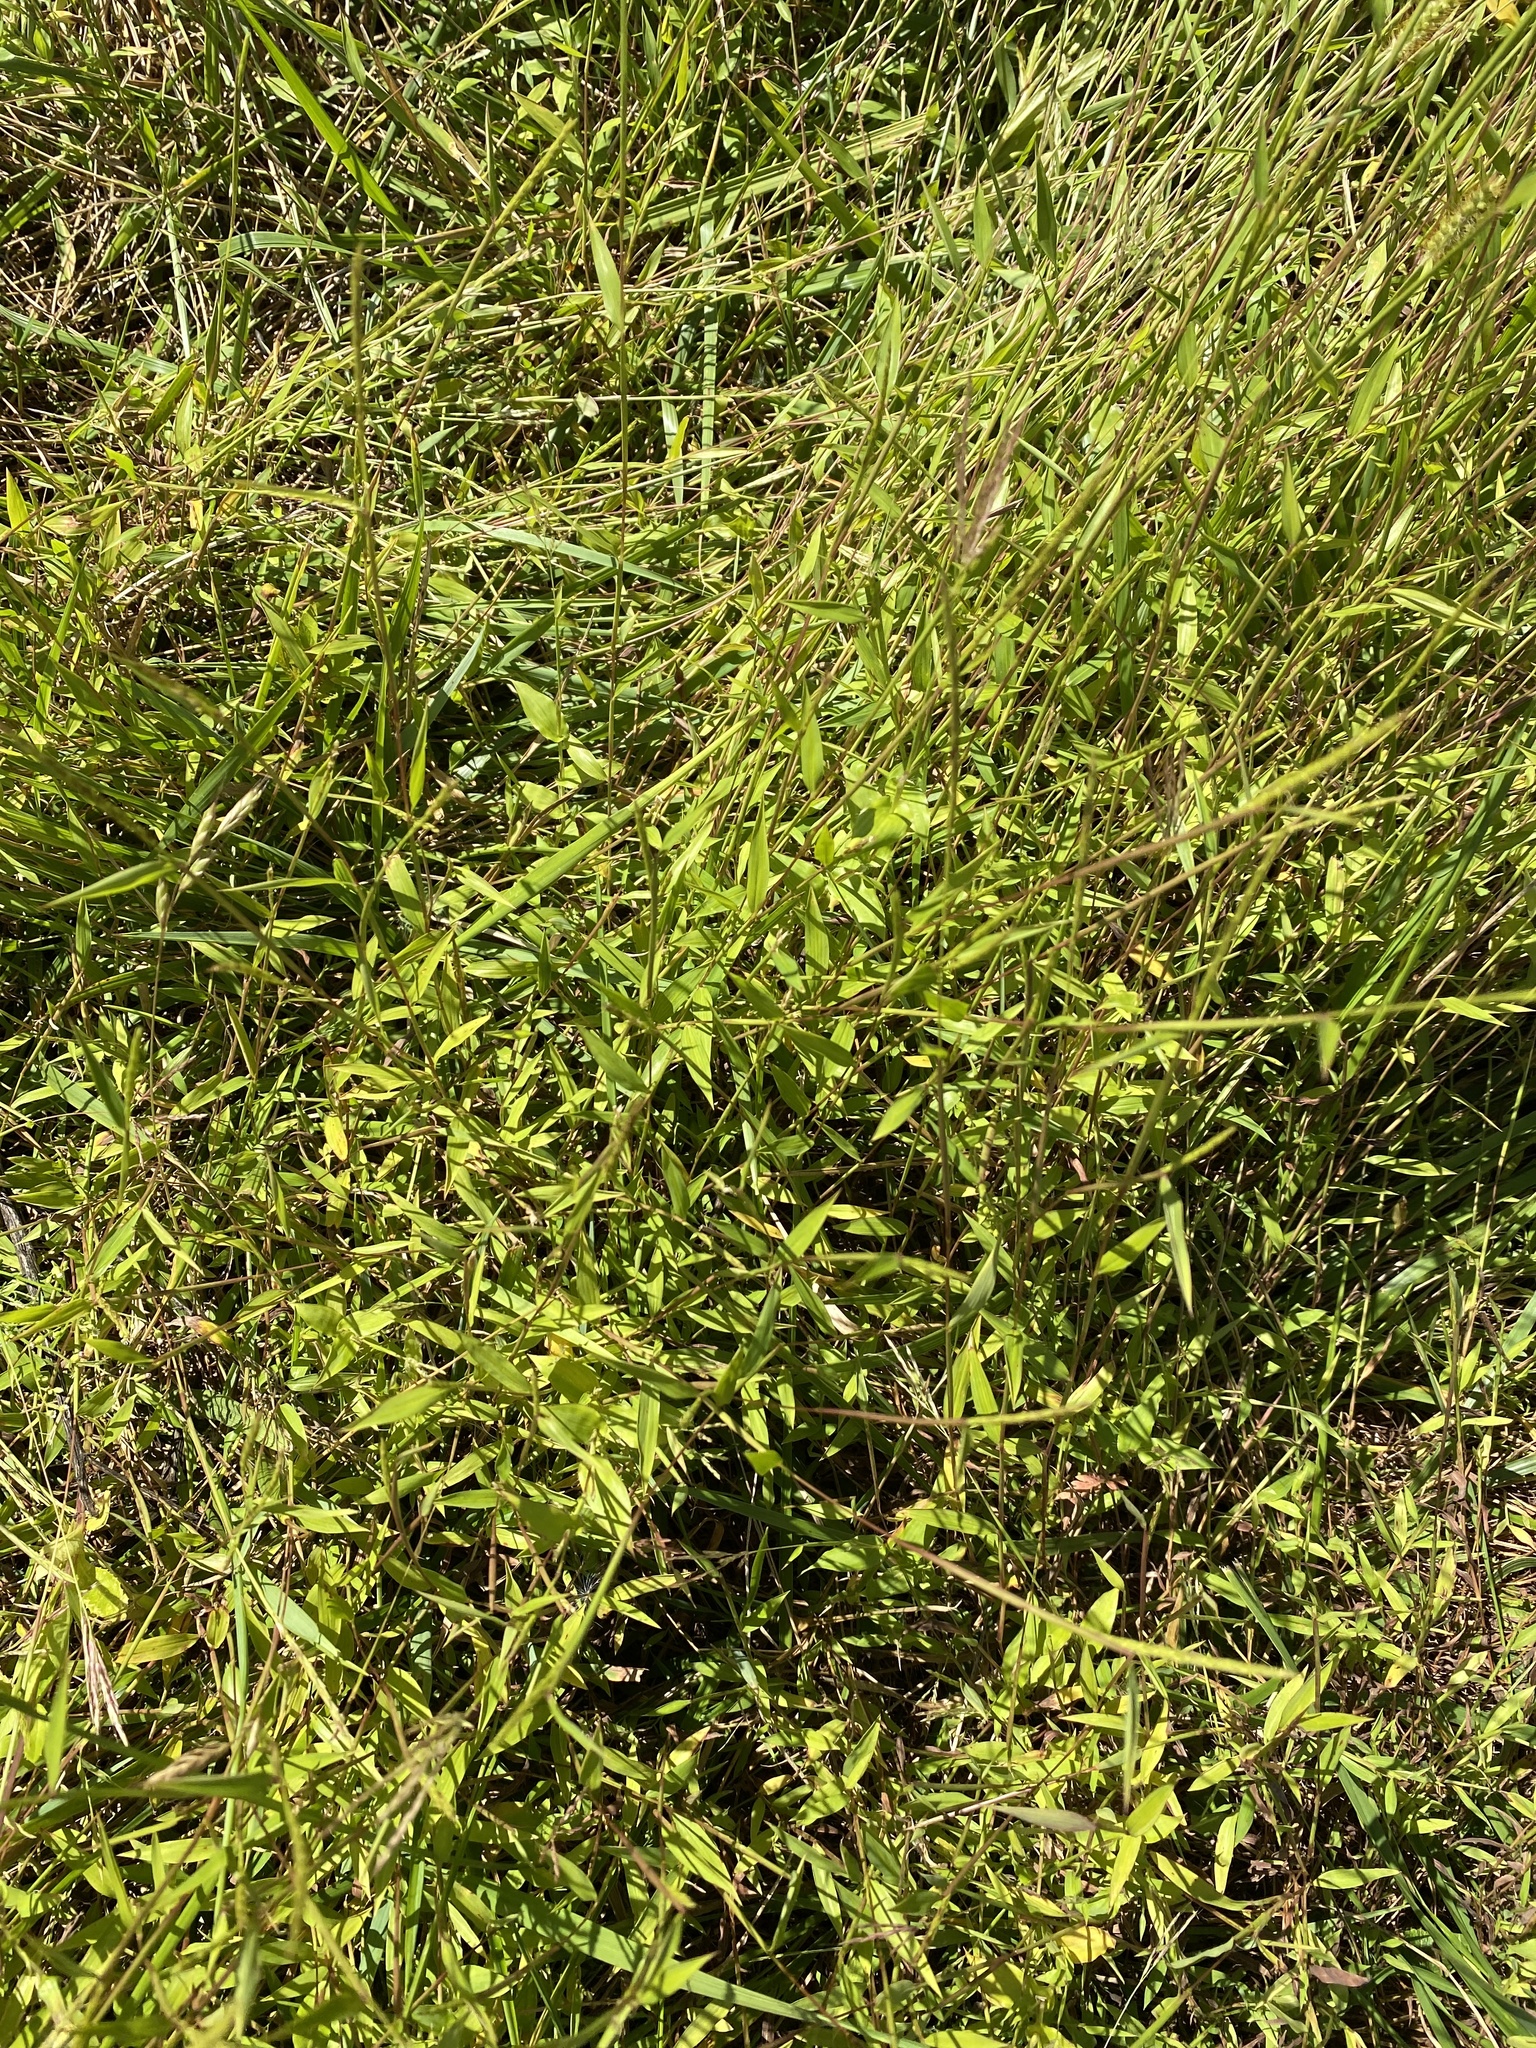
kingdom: Plantae
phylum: Tracheophyta
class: Liliopsida
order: Poales
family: Poaceae
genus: Microstegium
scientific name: Microstegium vimineum
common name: Japanese stiltgrass
